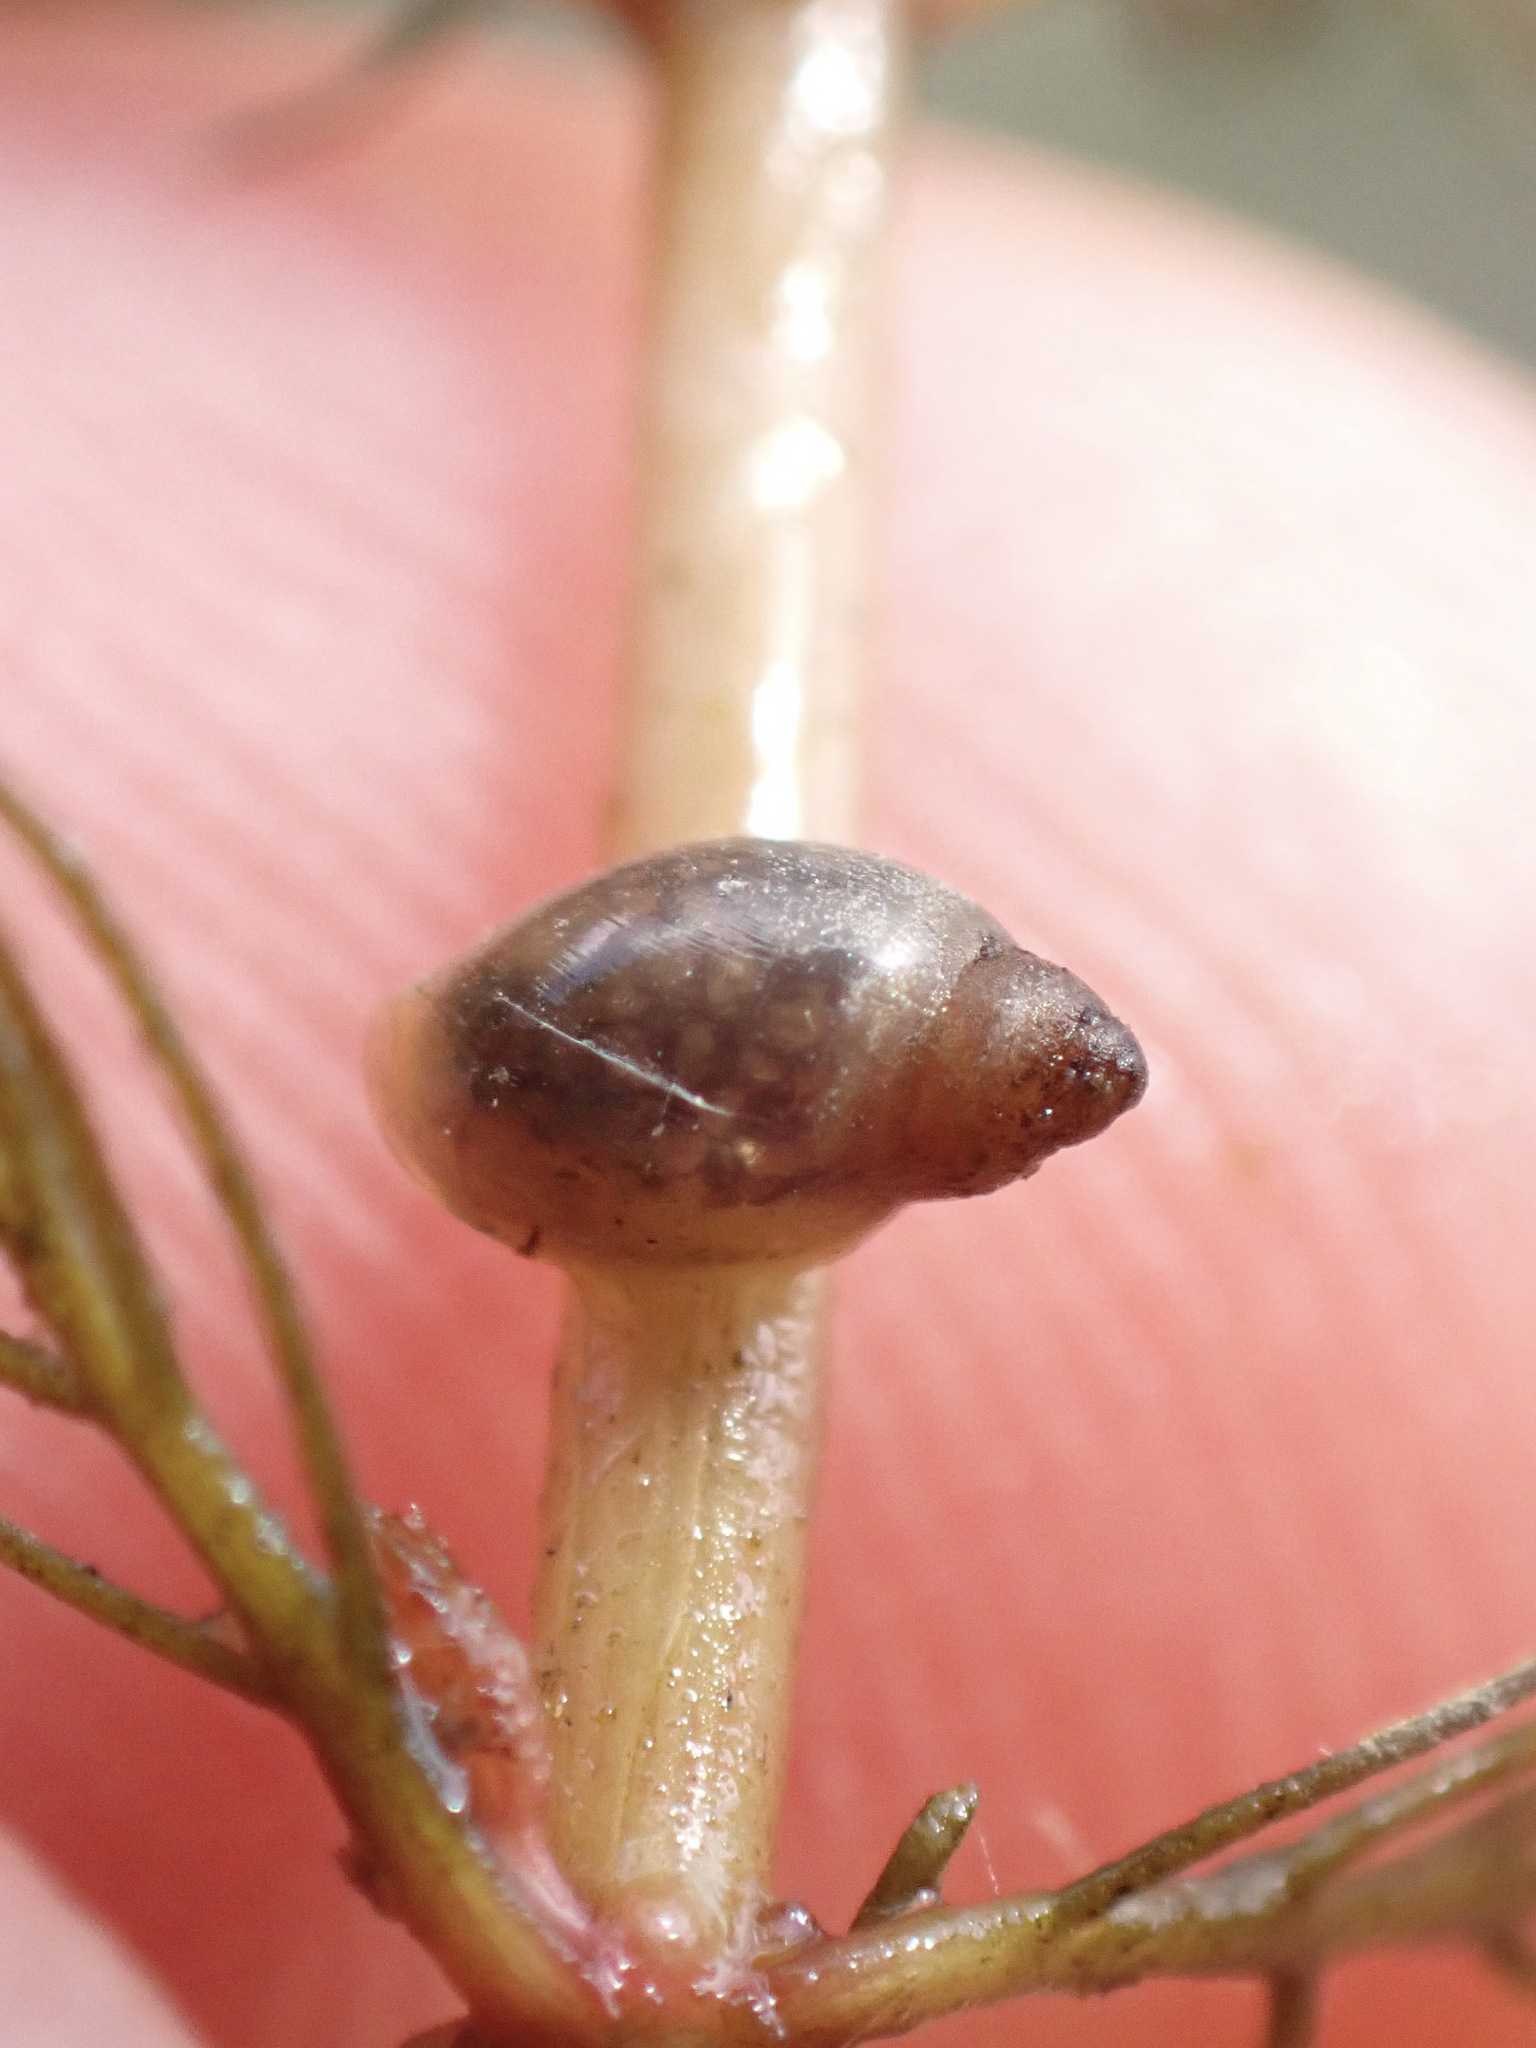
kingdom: Animalia
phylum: Mollusca
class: Gastropoda
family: Physidae
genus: Physella
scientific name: Physella acuta
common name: European physa
